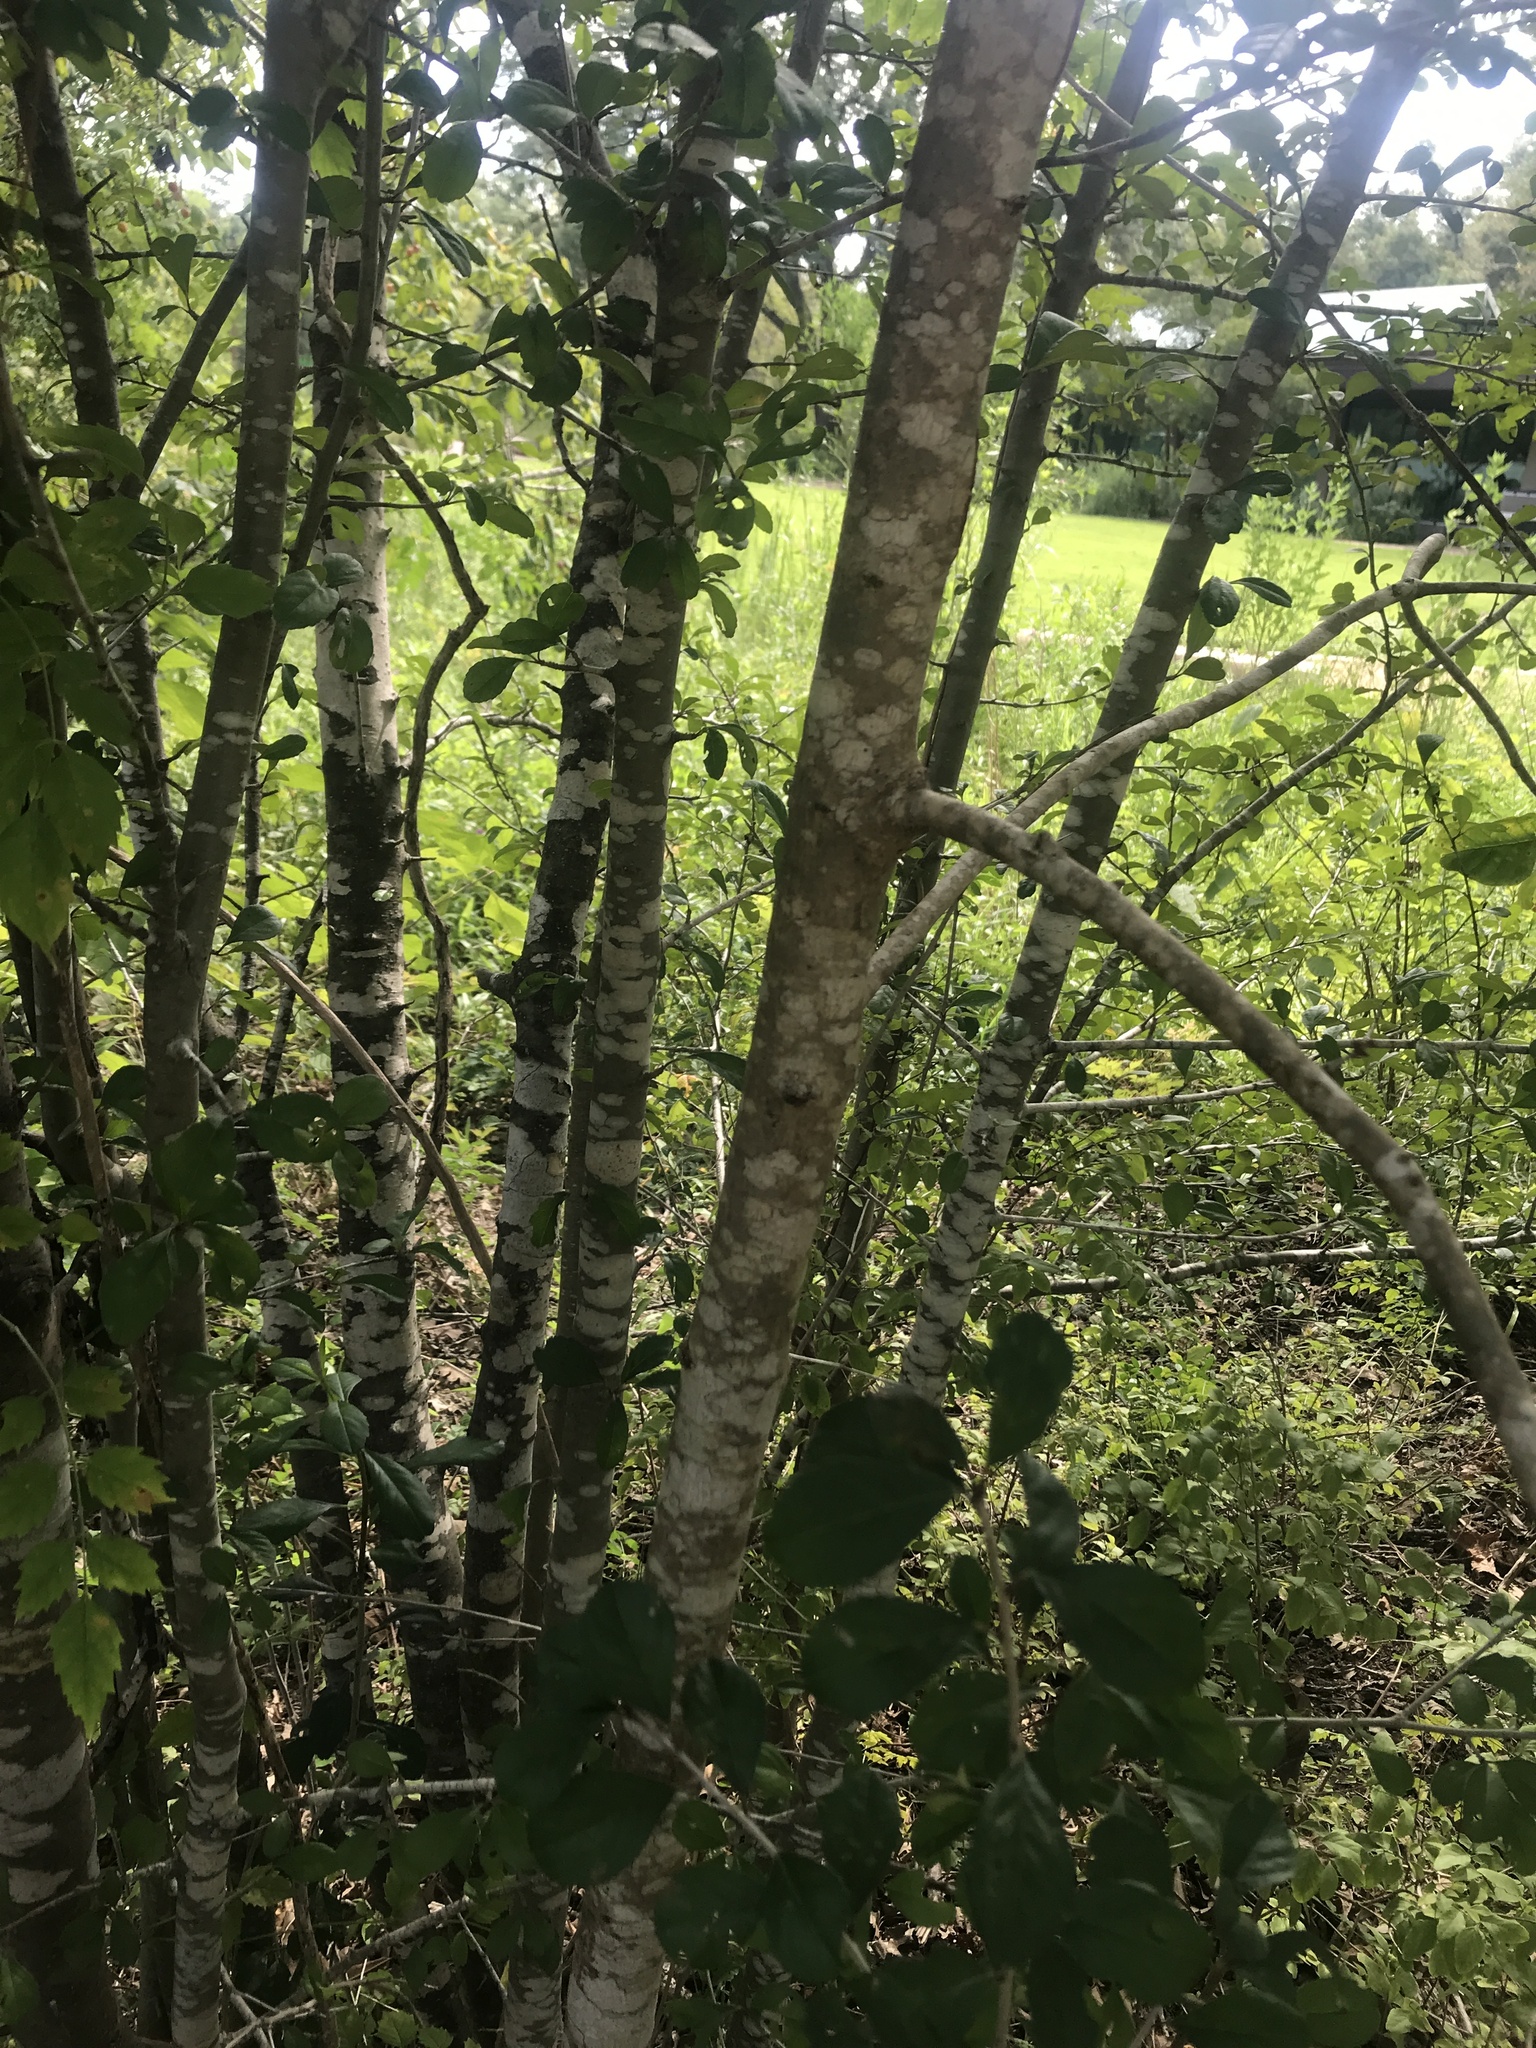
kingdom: Plantae
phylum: Tracheophyta
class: Magnoliopsida
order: Lamiales
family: Oleaceae
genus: Fraxinus
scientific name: Fraxinus americana
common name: White ash
